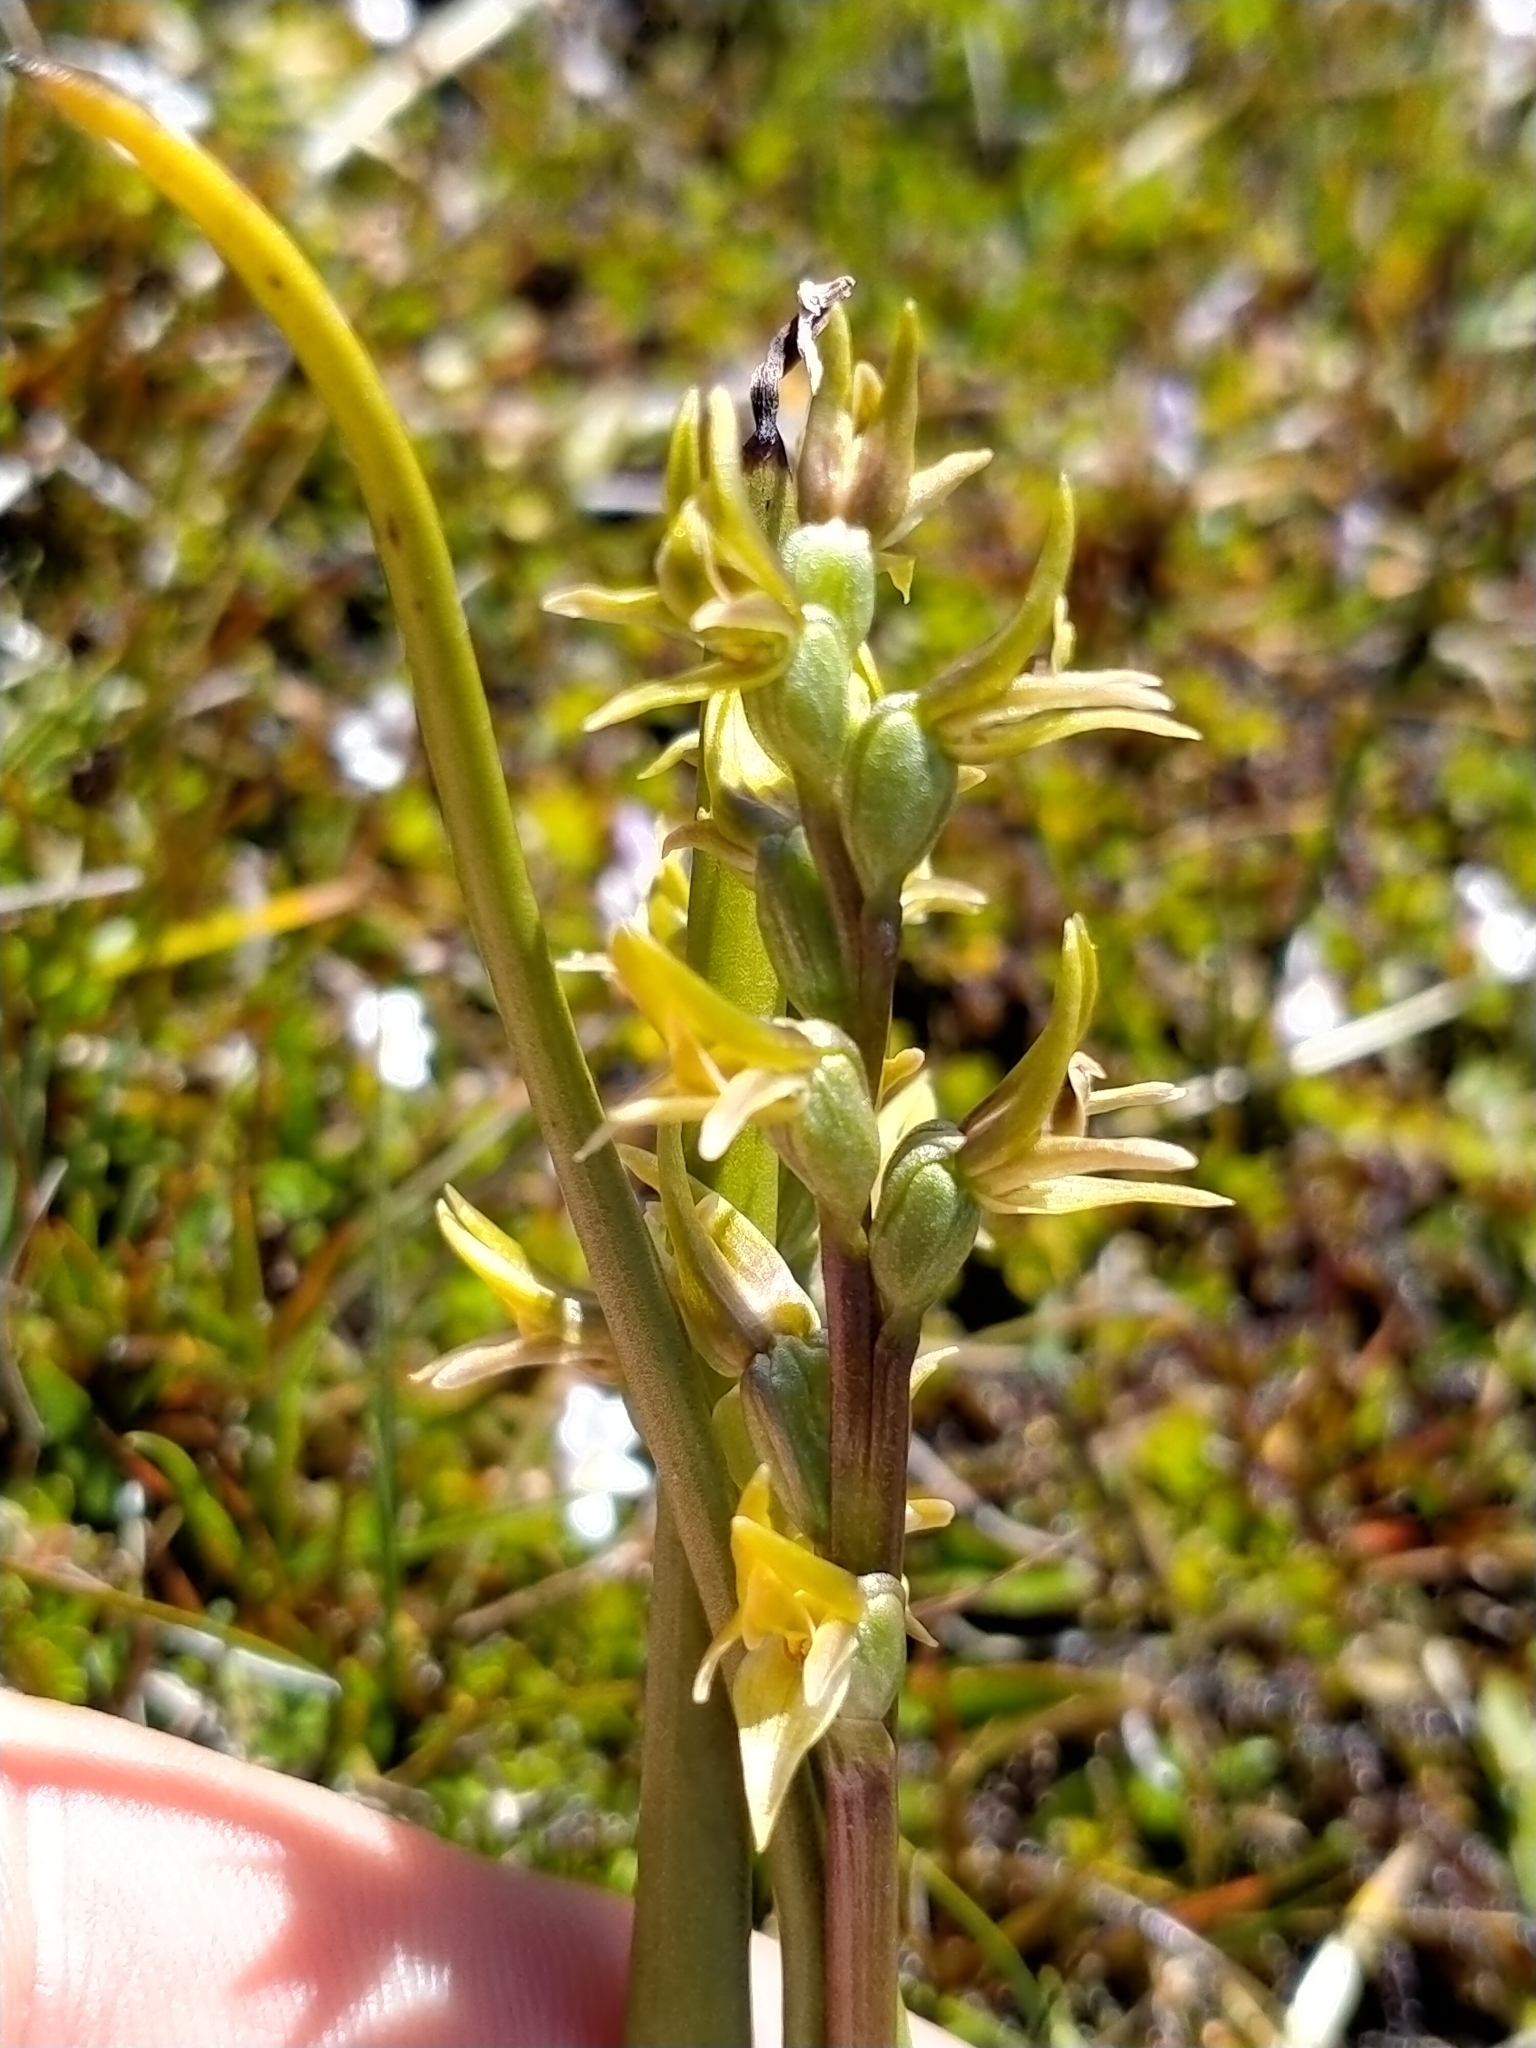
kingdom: Plantae
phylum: Tracheophyta
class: Liliopsida
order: Asparagales
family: Orchidaceae
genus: Prasophyllum
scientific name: Prasophyllum colensoi
